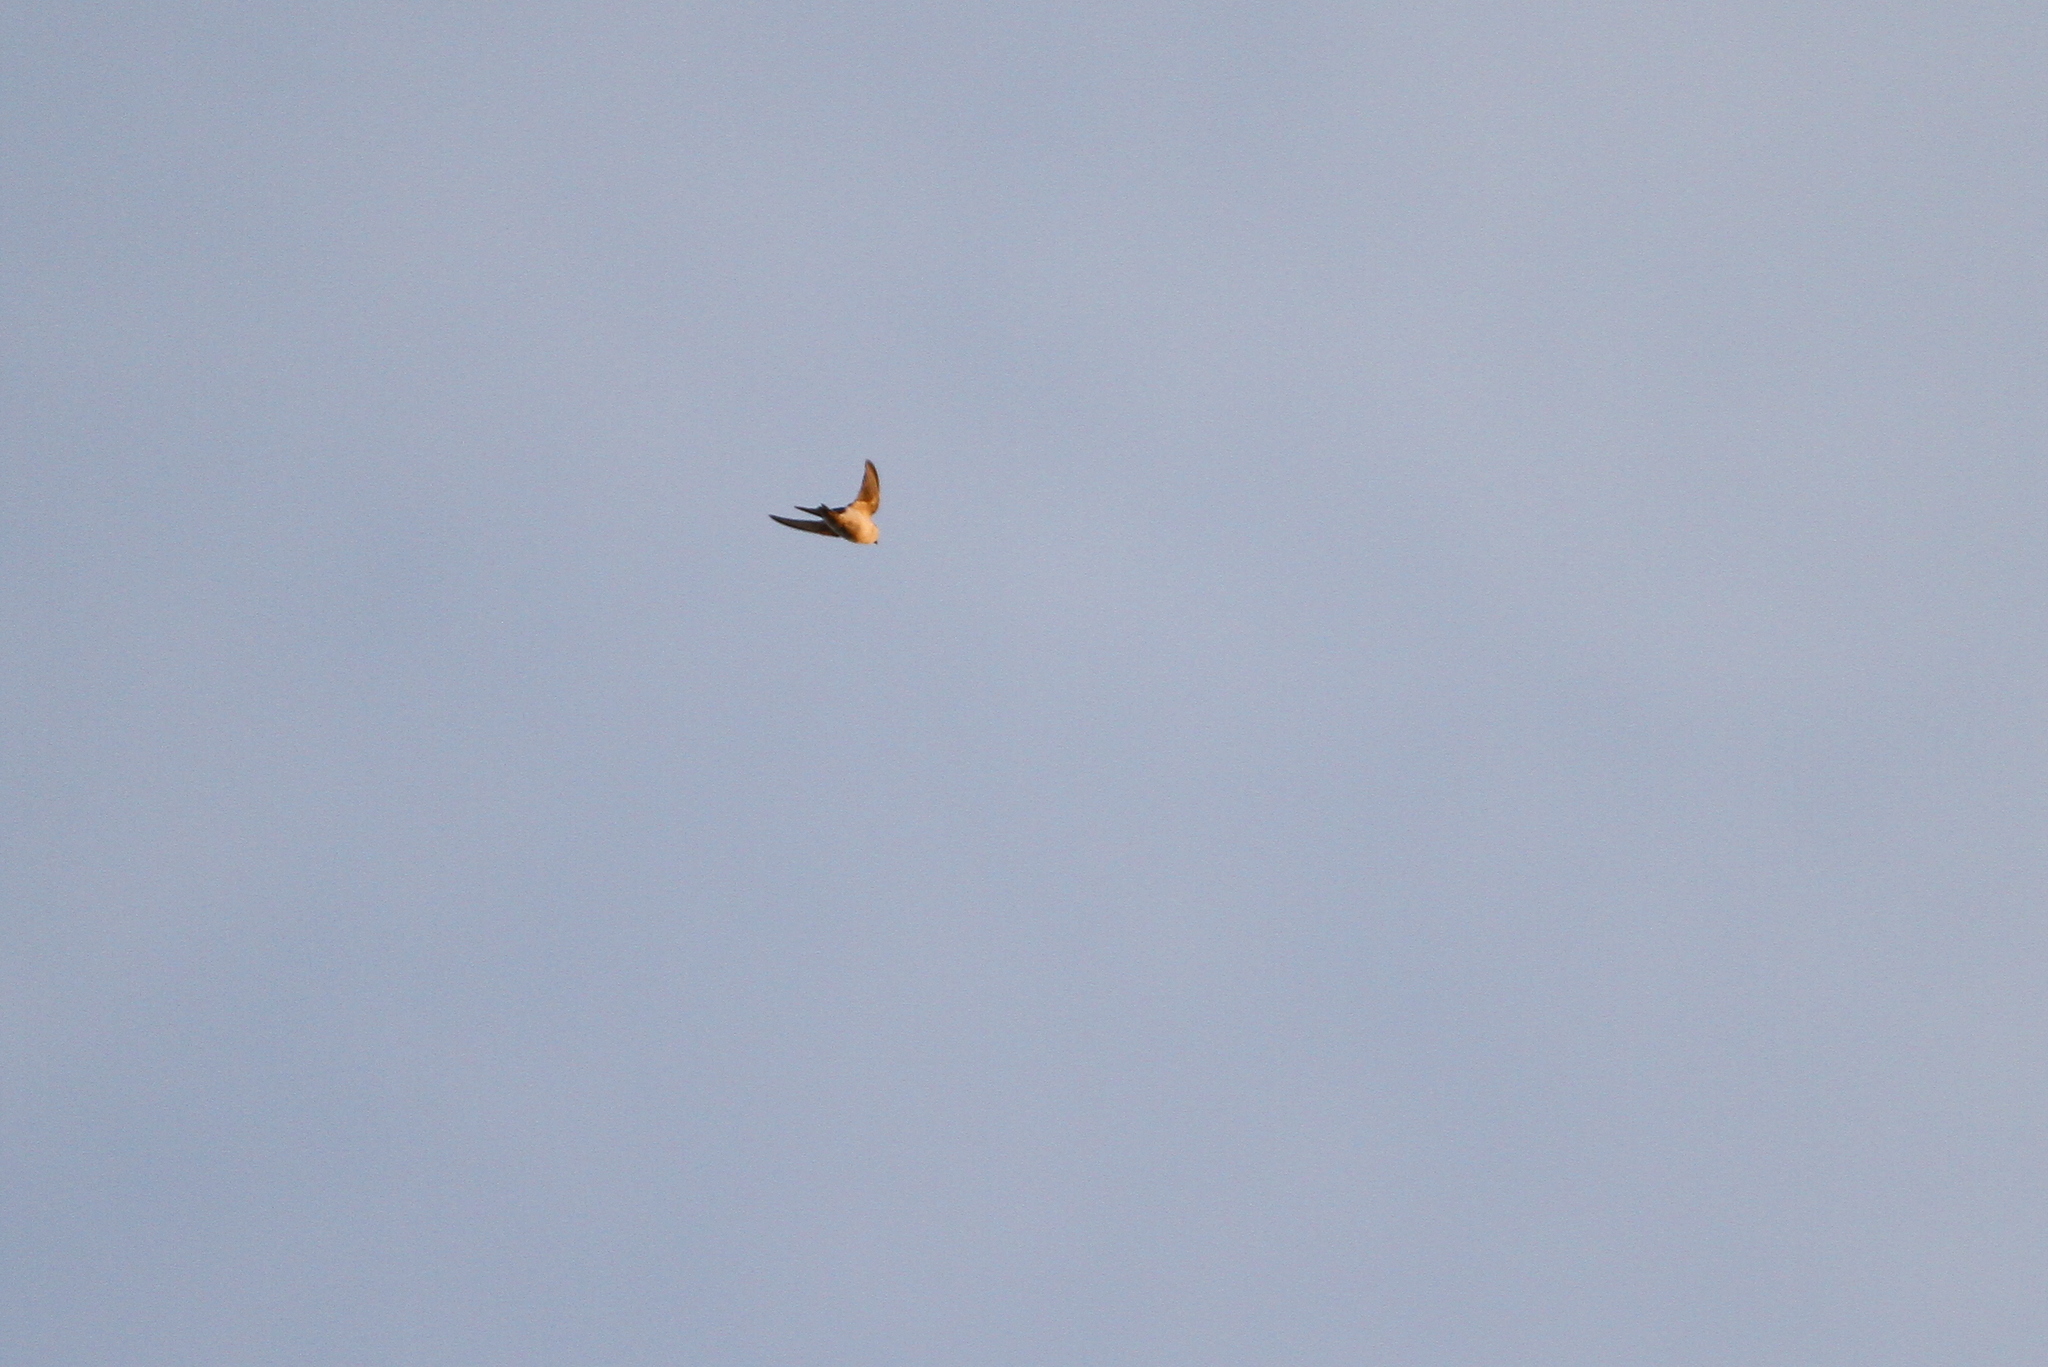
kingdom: Animalia
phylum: Chordata
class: Aves
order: Passeriformes
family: Hirundinidae
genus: Tachycineta
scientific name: Tachycineta cyaneoviridis
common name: Bahama swallow
